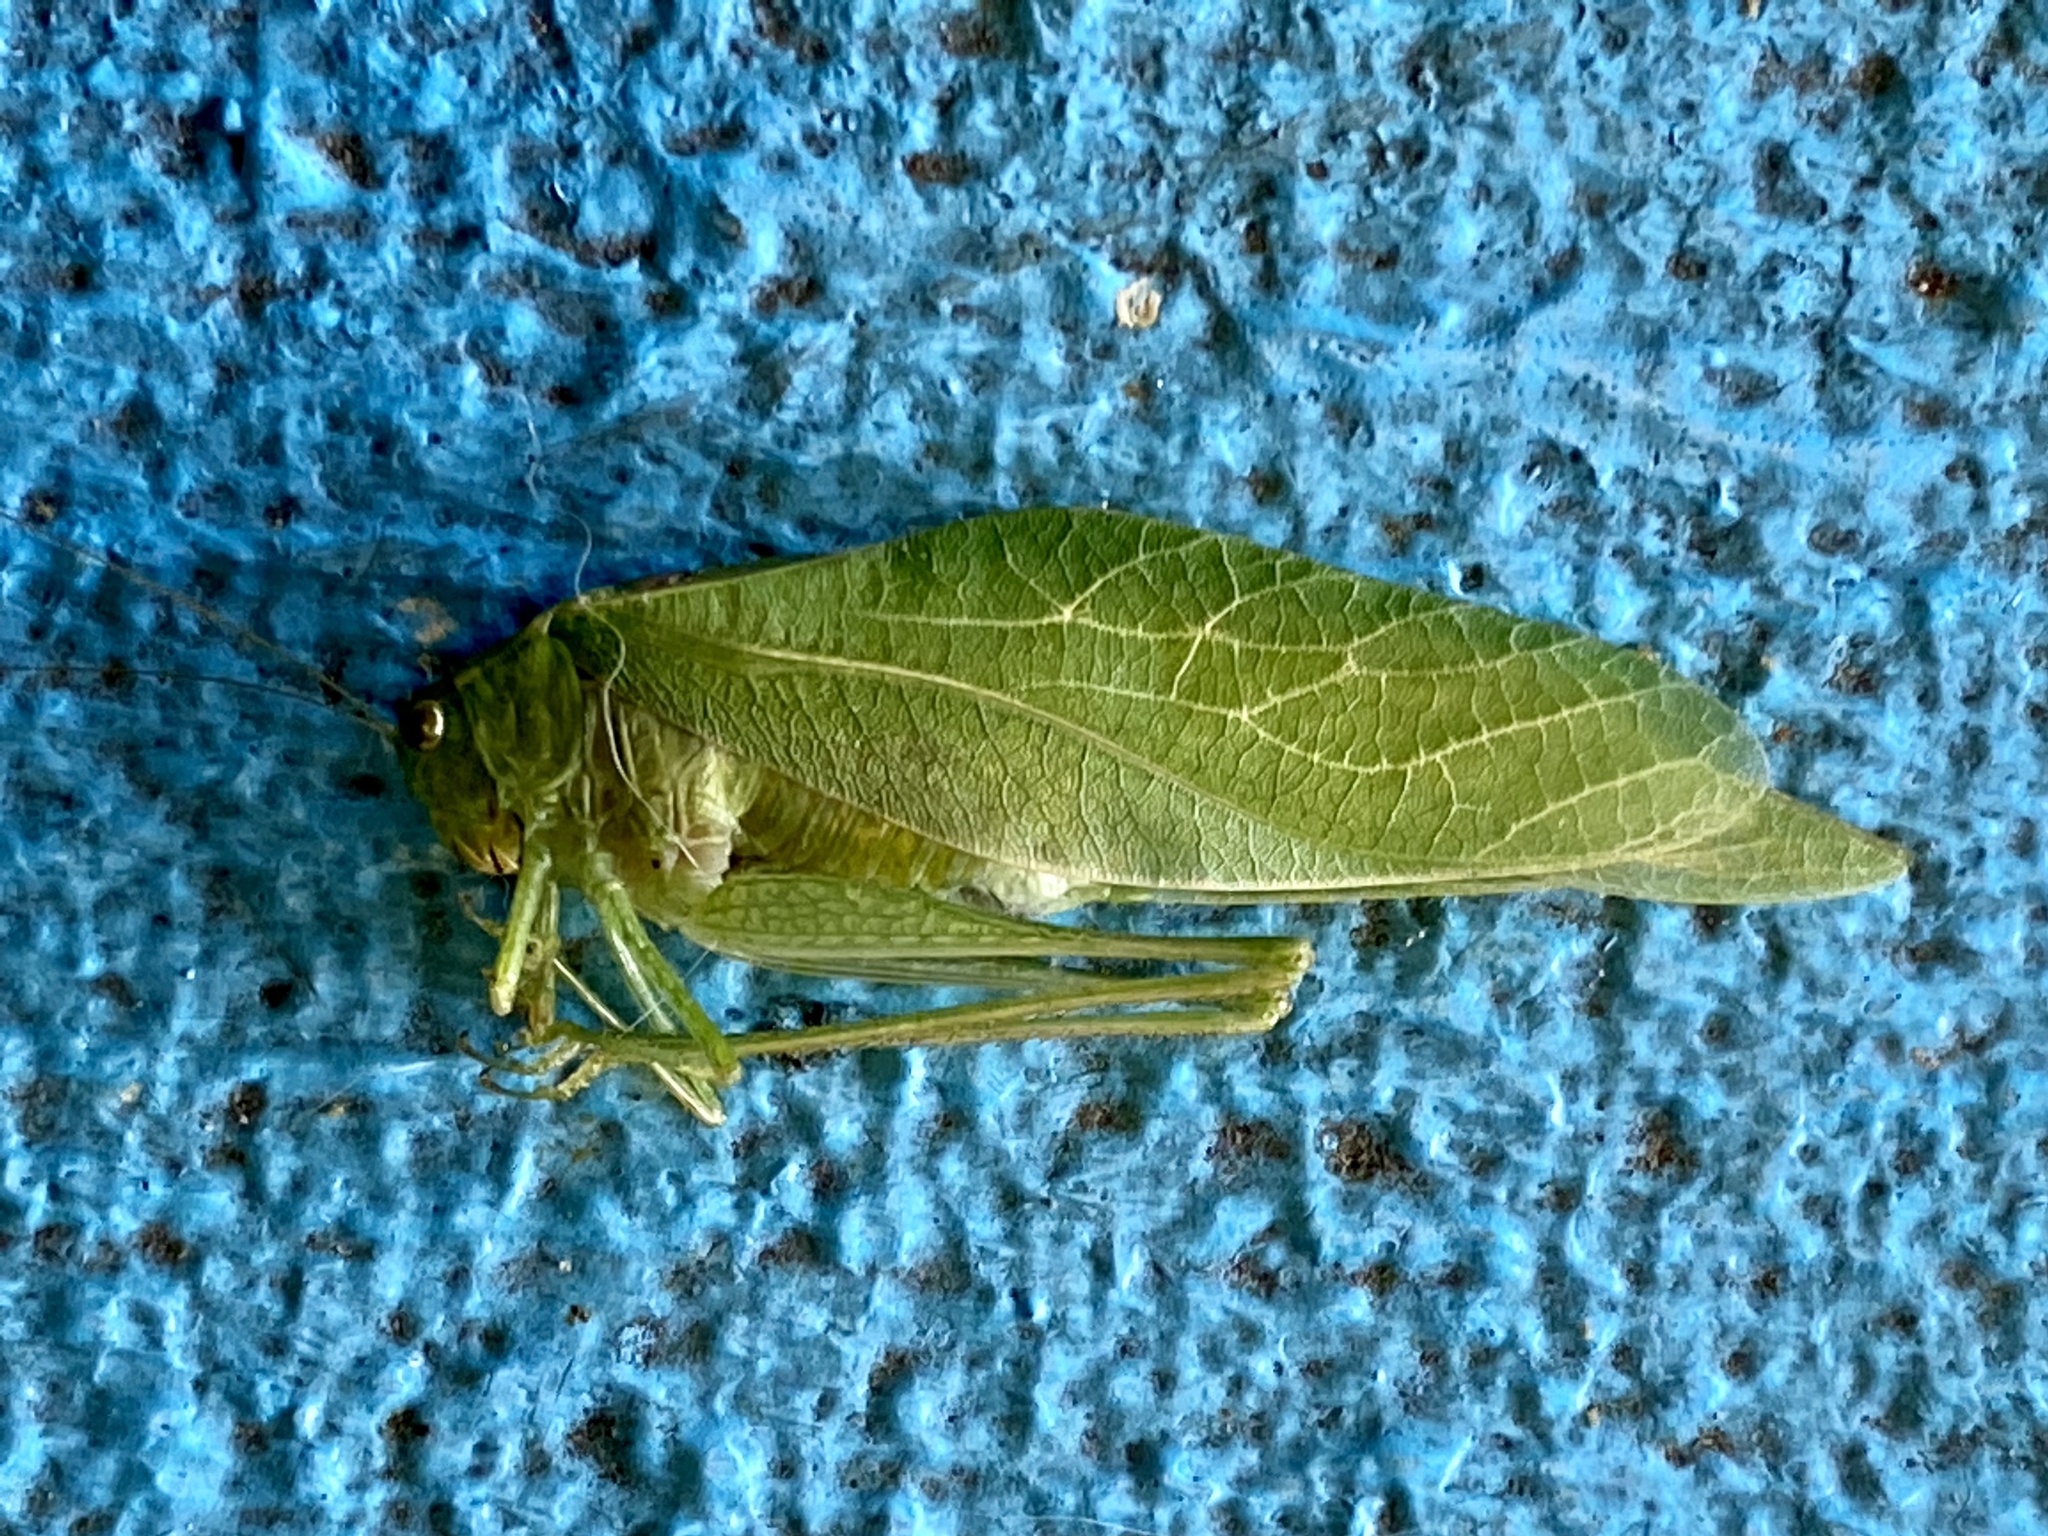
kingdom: Animalia
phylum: Arthropoda
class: Insecta
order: Orthoptera
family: Tettigoniidae
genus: Microcentrum
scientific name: Microcentrum retinerve
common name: Angular-winged katydid
